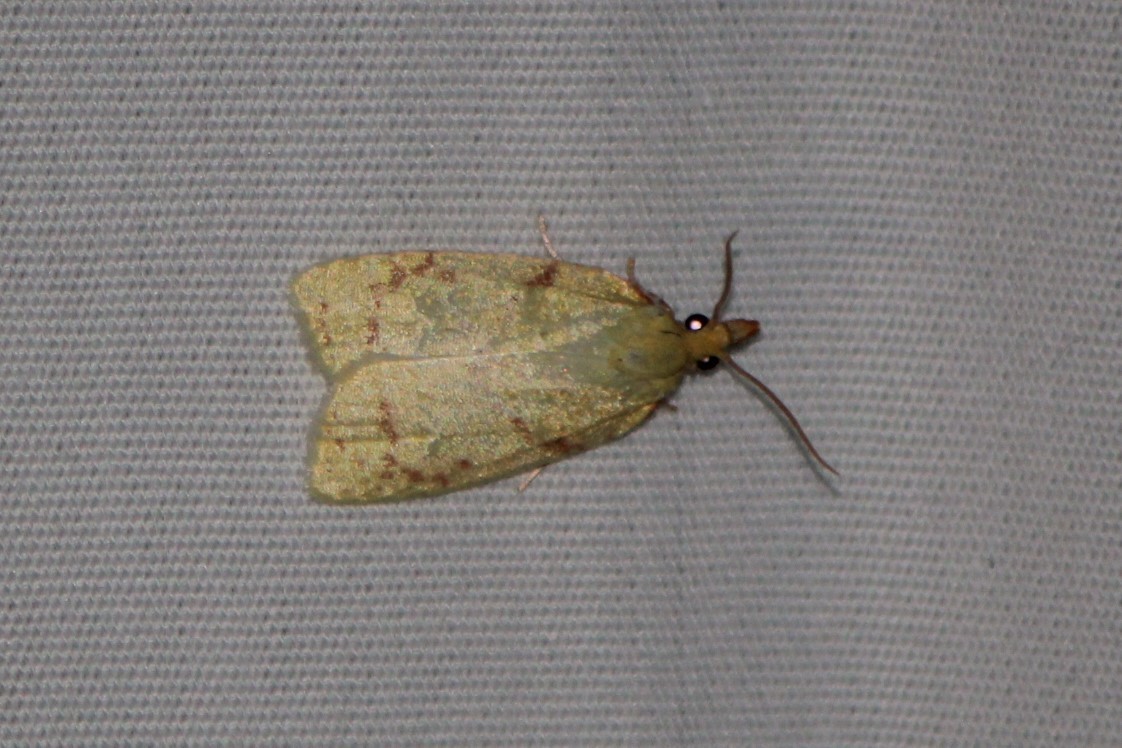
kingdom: Animalia
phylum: Arthropoda
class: Insecta
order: Lepidoptera
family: Tortricidae
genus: Cenopis
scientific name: Cenopis pettitana
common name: Maple-basswood leafroller moth
